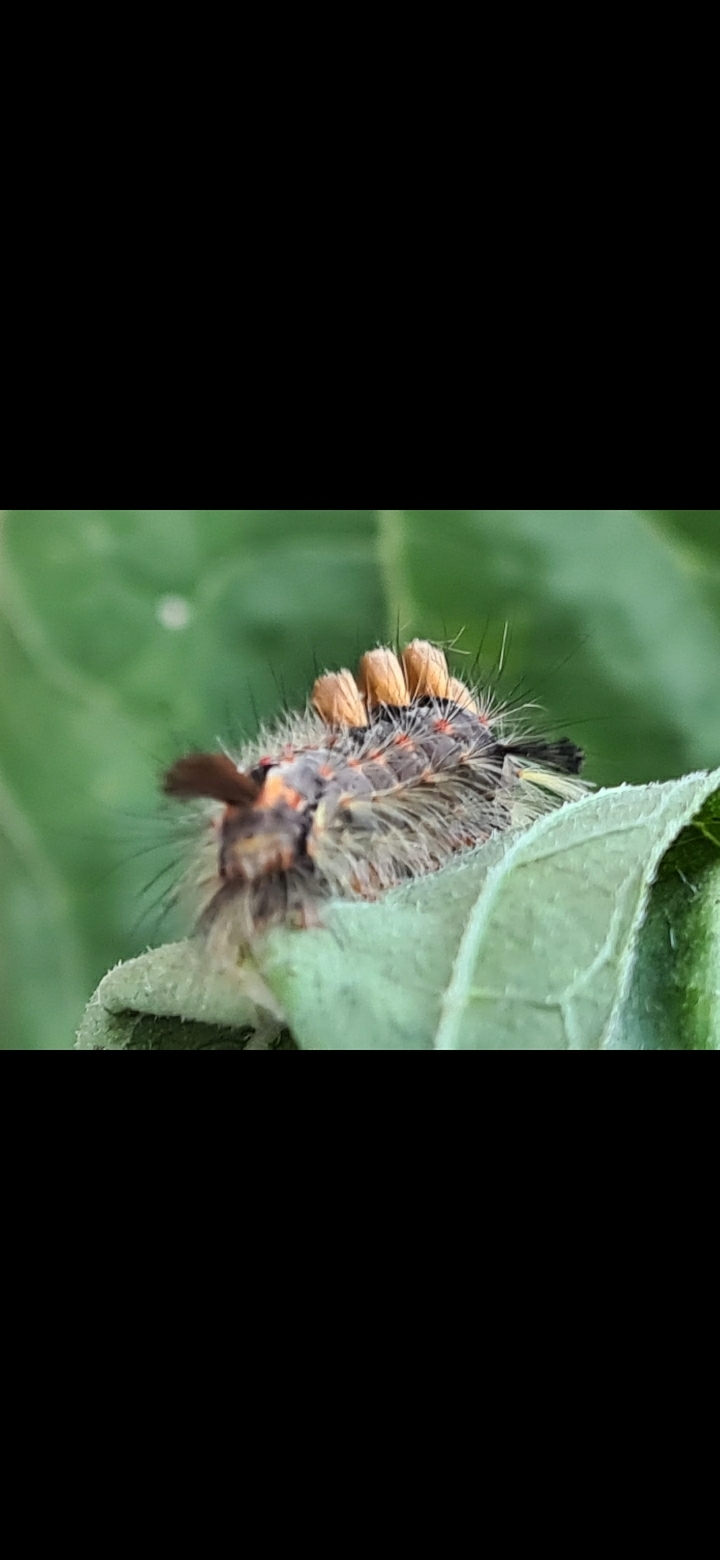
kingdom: Animalia
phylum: Arthropoda
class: Insecta
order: Lepidoptera
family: Erebidae
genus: Orgyia
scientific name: Orgyia antiqua
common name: Vapourer
